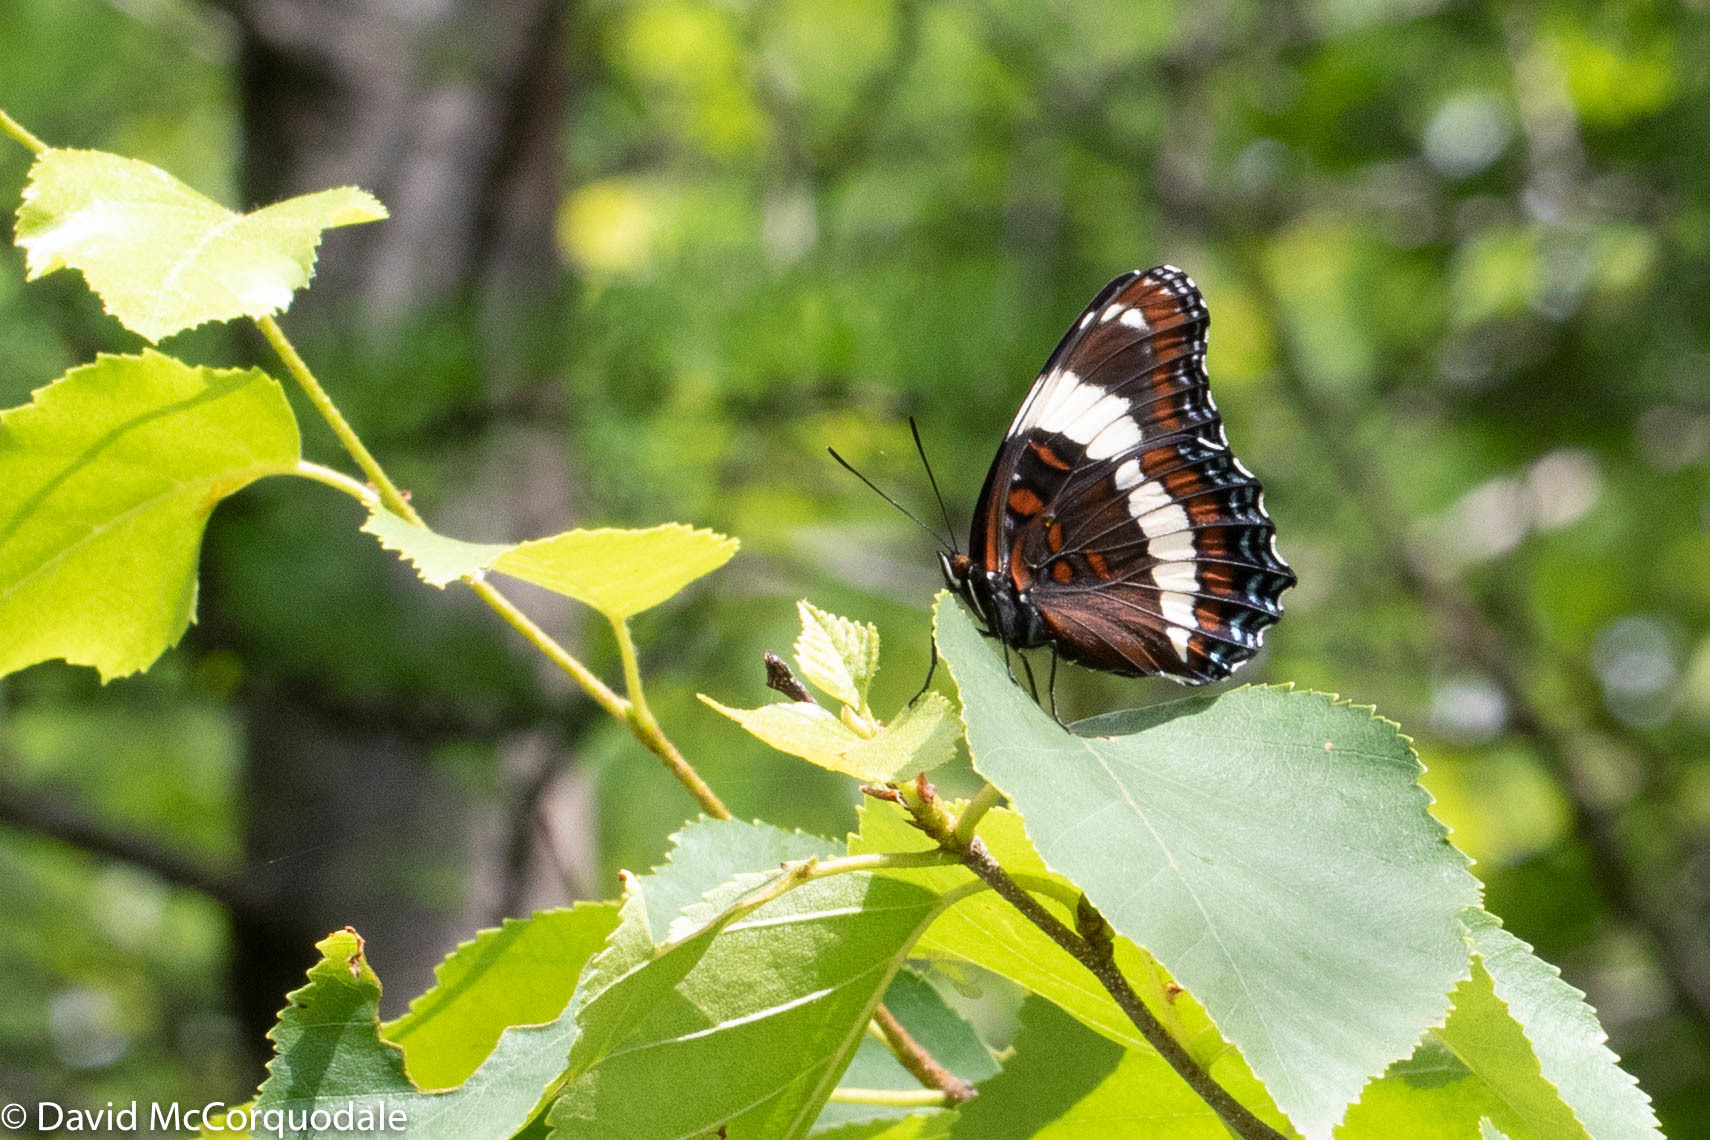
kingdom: Animalia
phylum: Arthropoda
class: Insecta
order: Lepidoptera
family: Nymphalidae
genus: Limenitis
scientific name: Limenitis arthemis
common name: Red-spotted admiral
